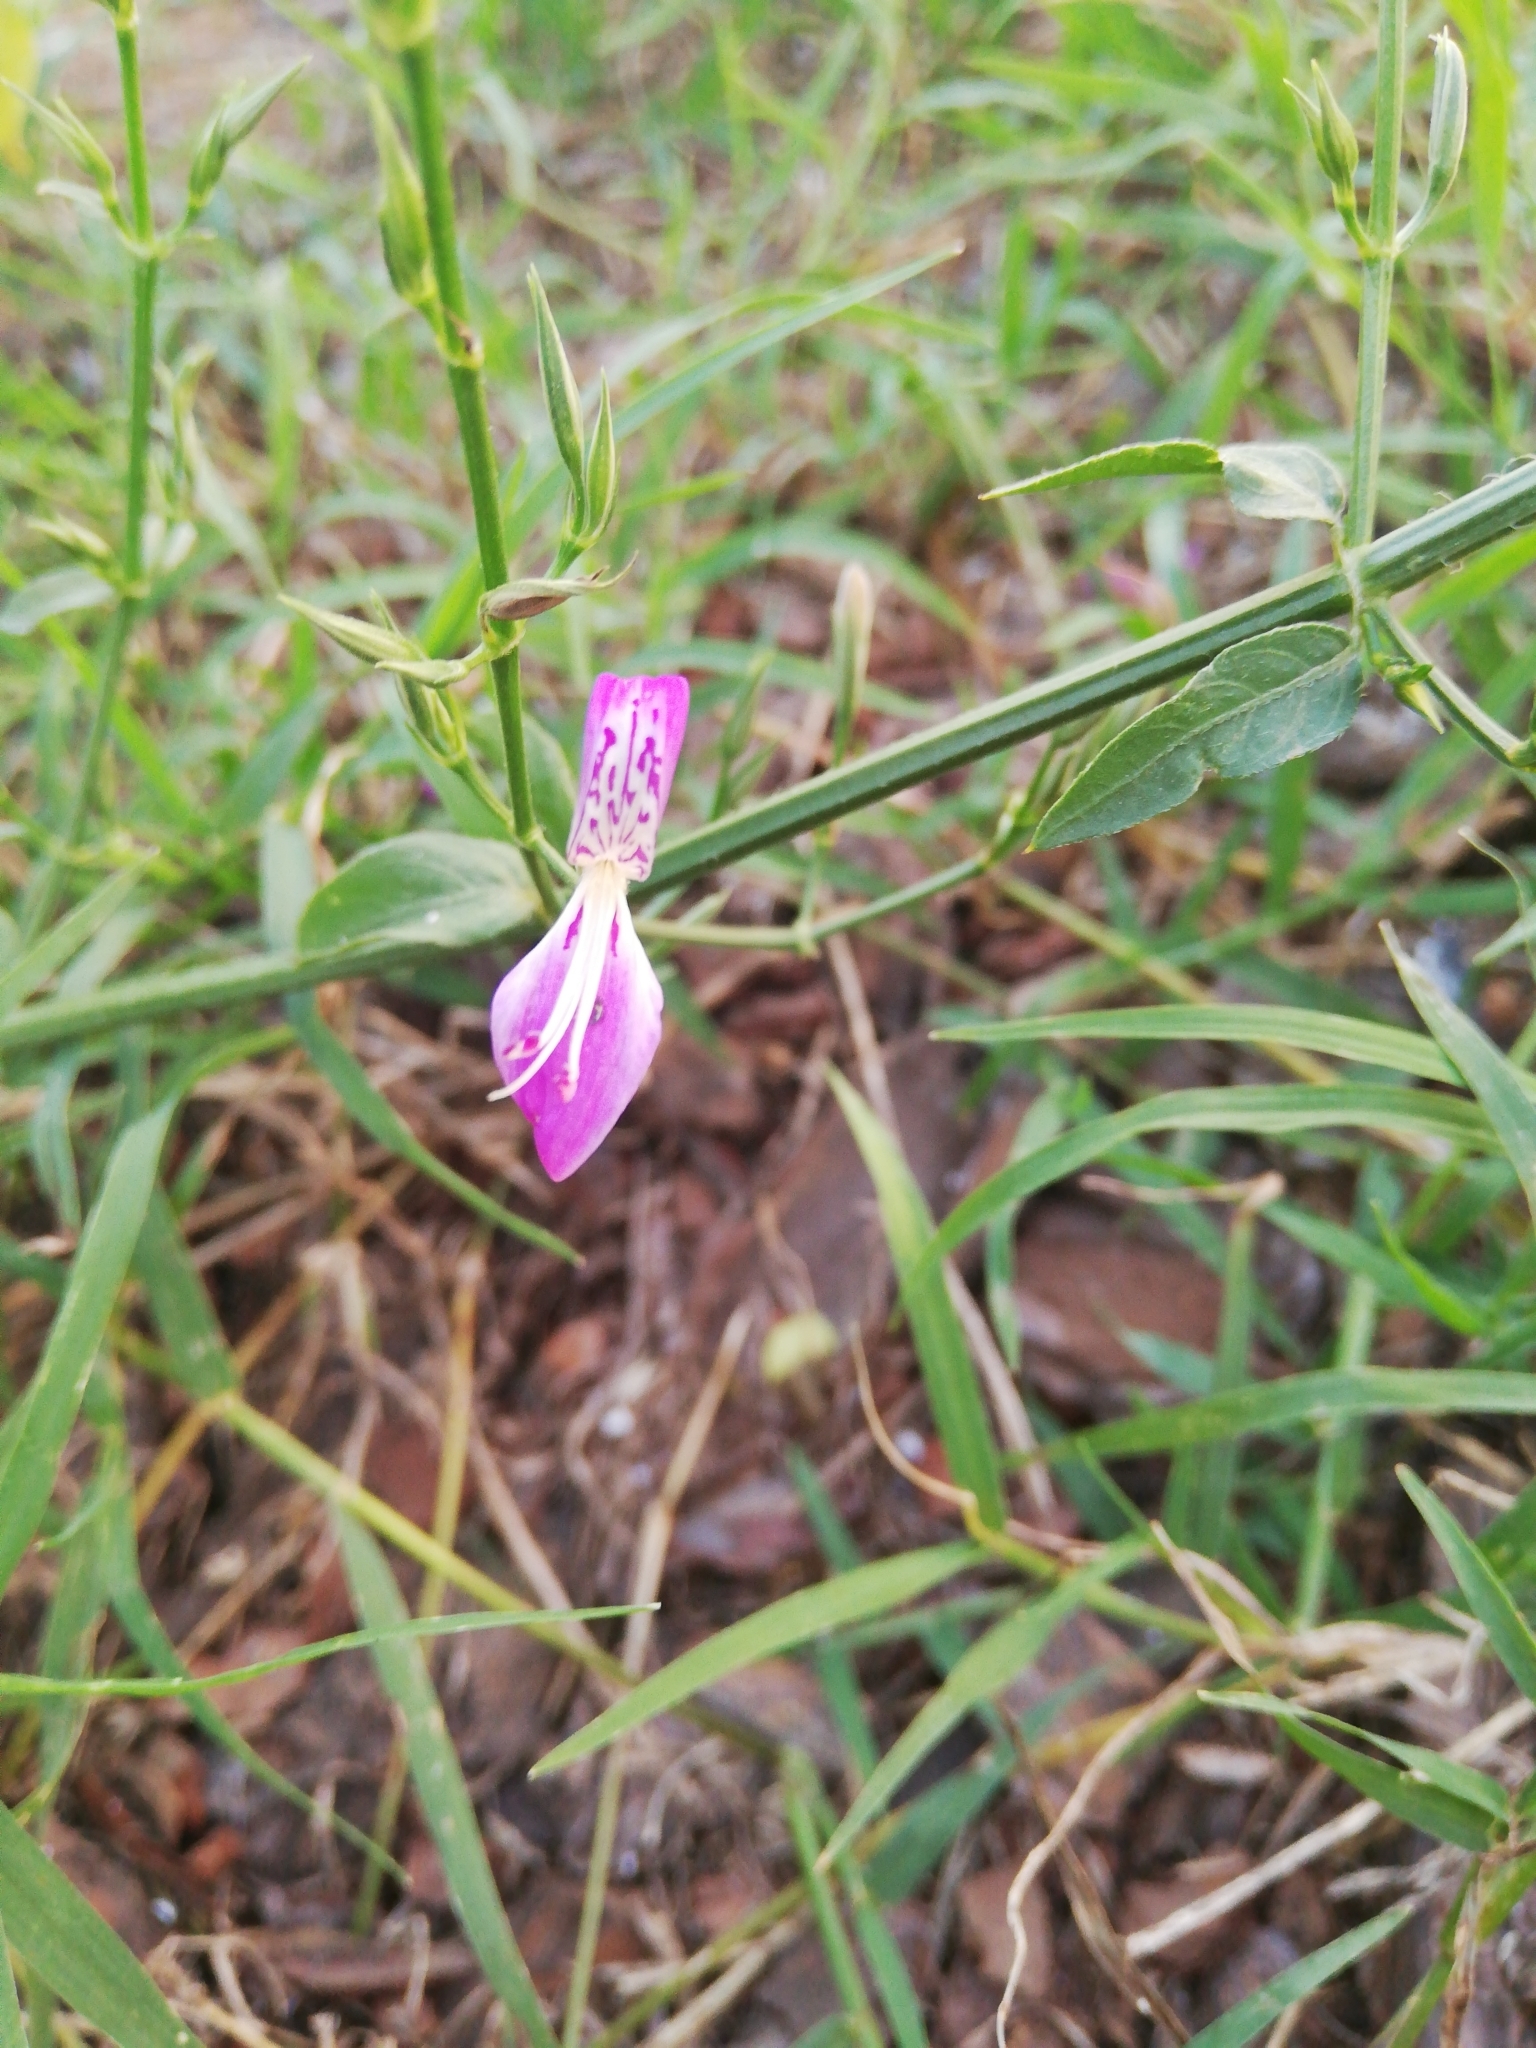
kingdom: Plantae
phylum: Tracheophyta
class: Magnoliopsida
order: Lamiales
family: Acanthaceae
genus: Dicliptera
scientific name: Dicliptera cernua
